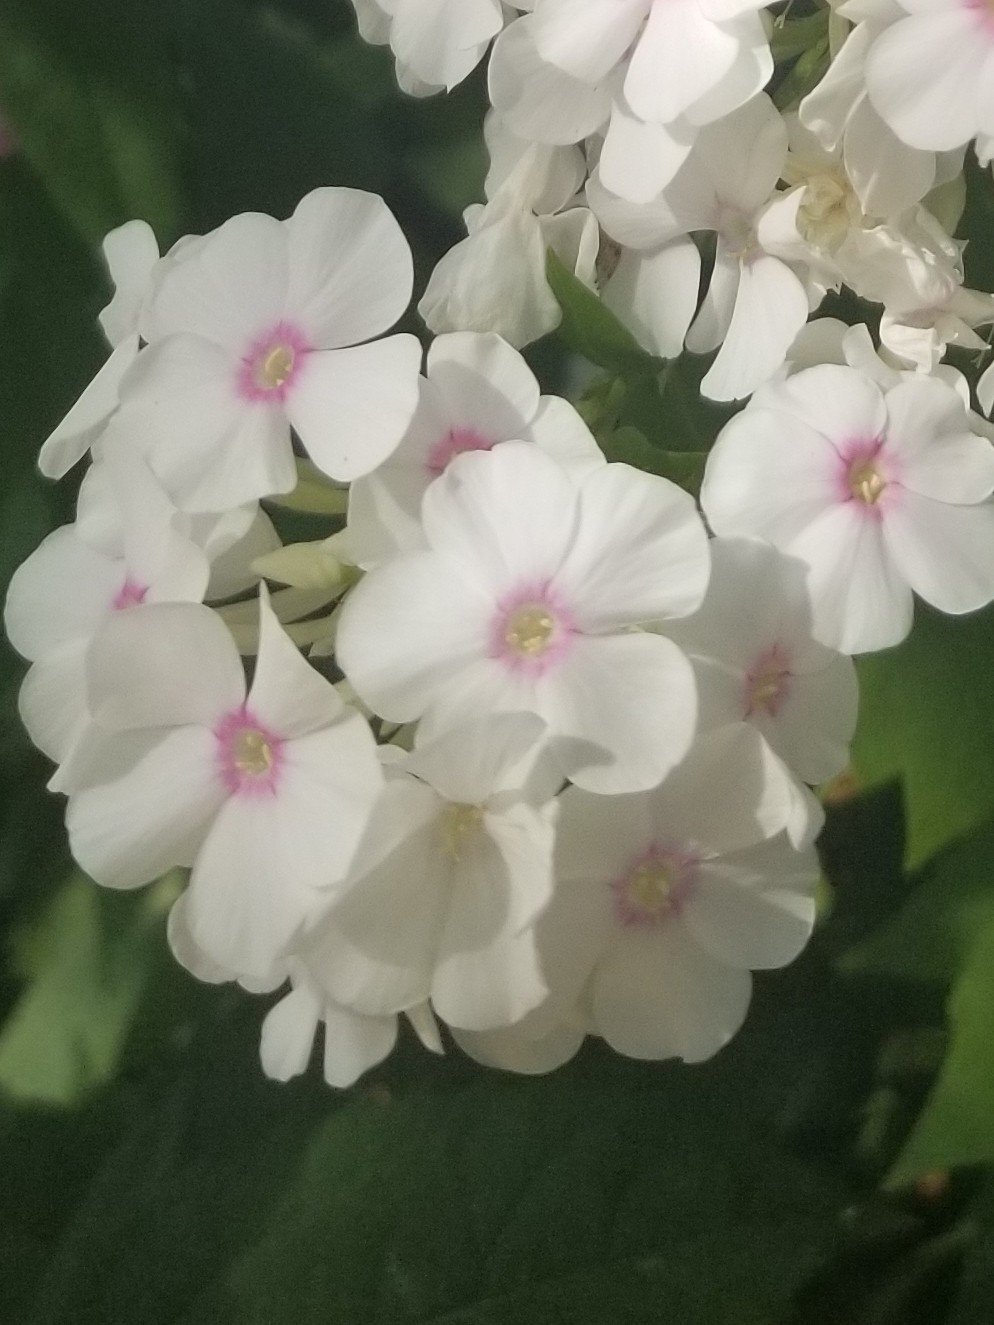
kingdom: Plantae
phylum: Tracheophyta
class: Magnoliopsida
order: Ericales
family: Polemoniaceae
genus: Phlox
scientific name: Phlox paniculata
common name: Fall phlox
